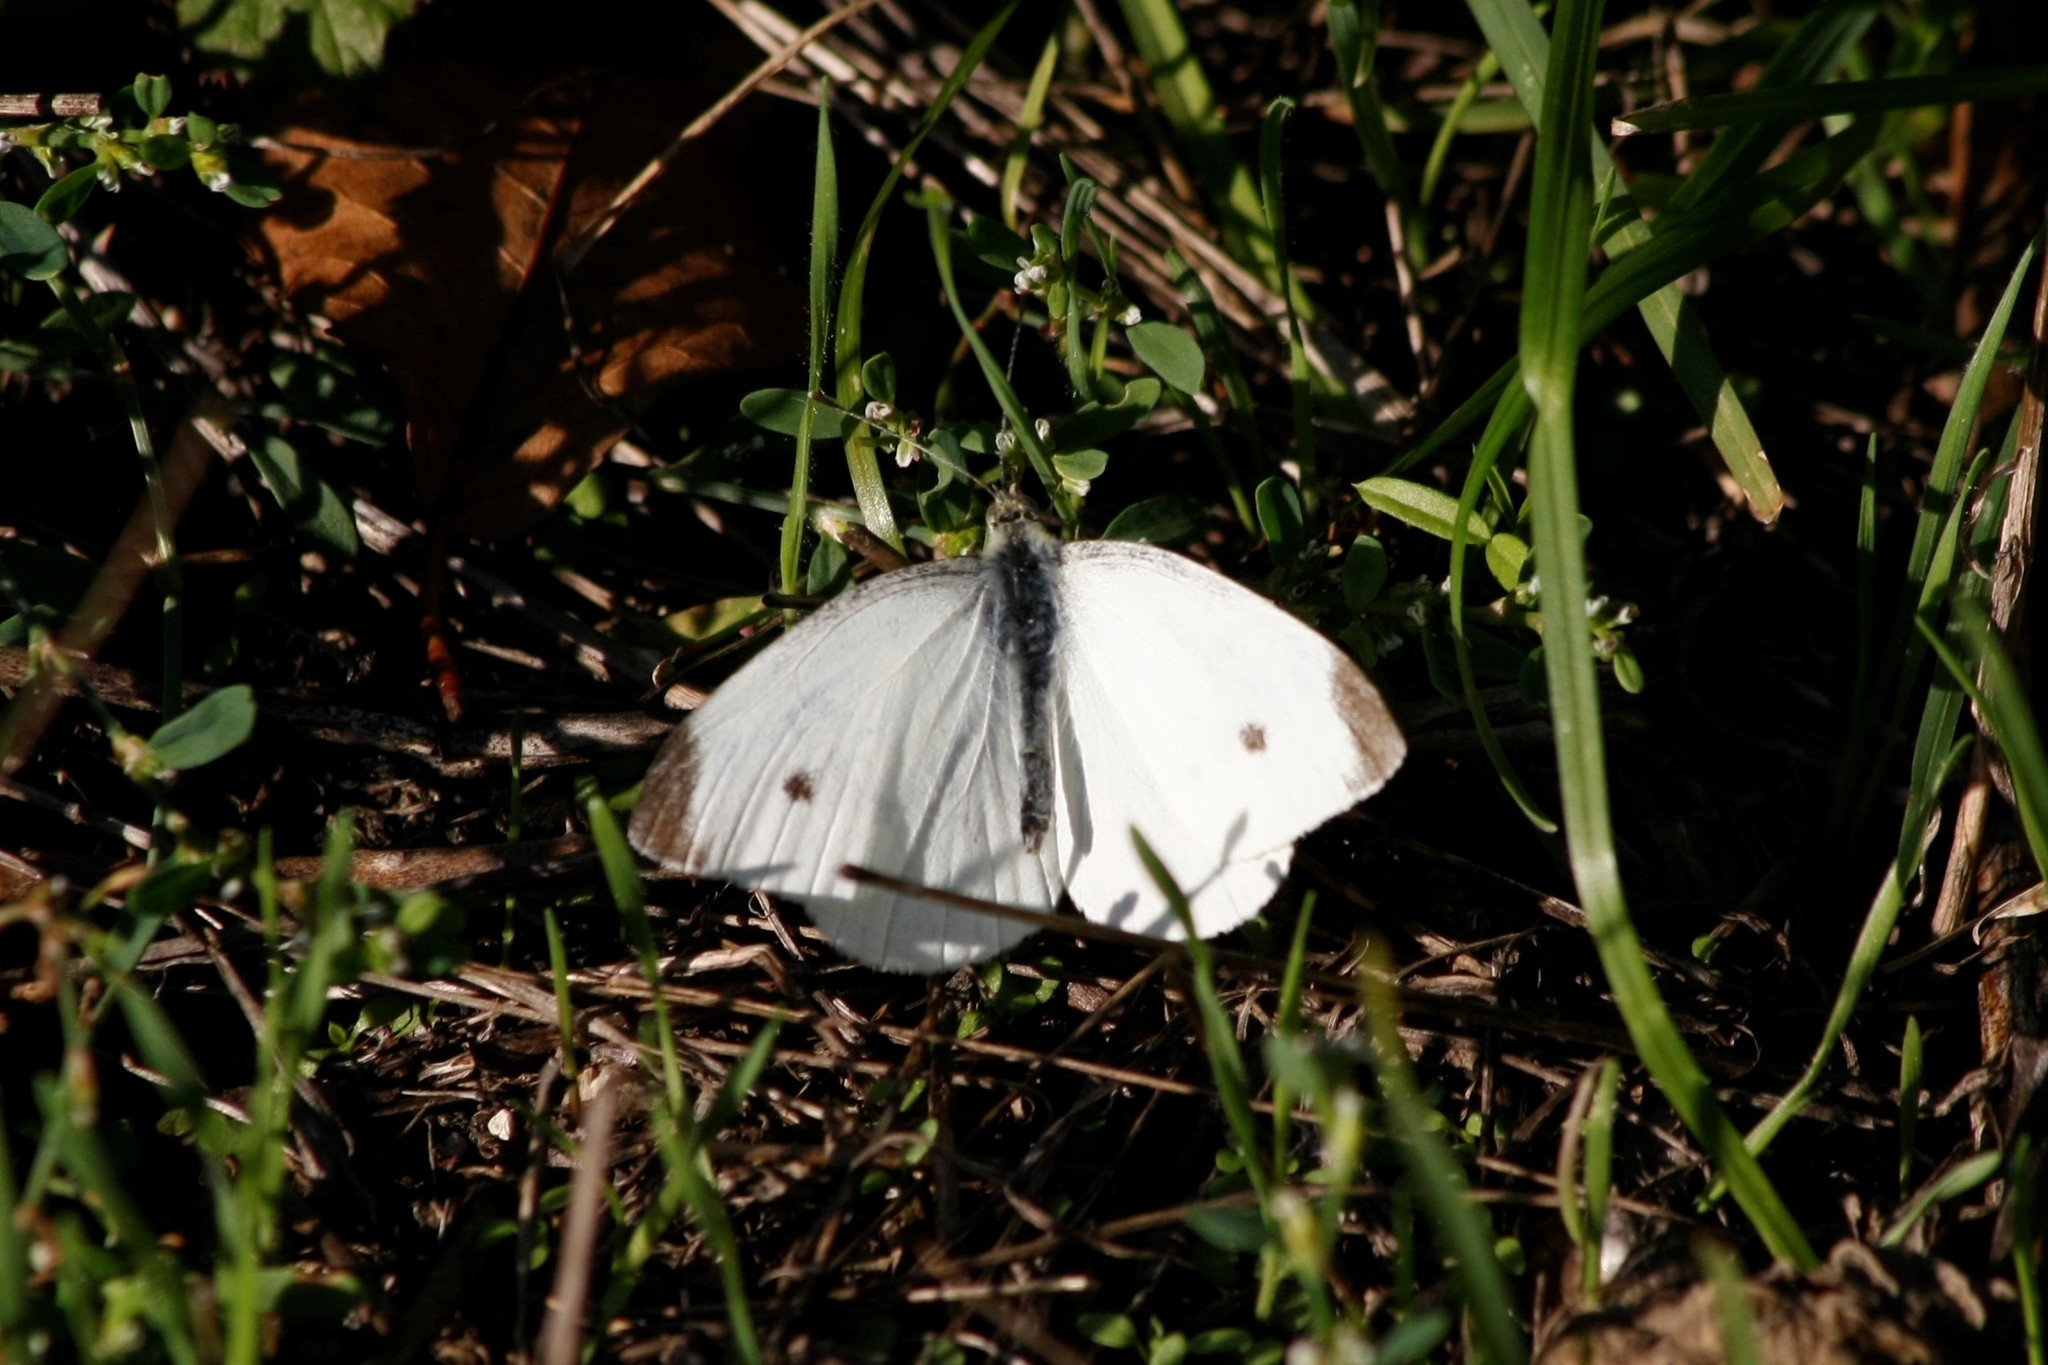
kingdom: Animalia
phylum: Arthropoda
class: Insecta
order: Lepidoptera
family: Pieridae
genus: Pieris
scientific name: Pieris rapae
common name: Small white
